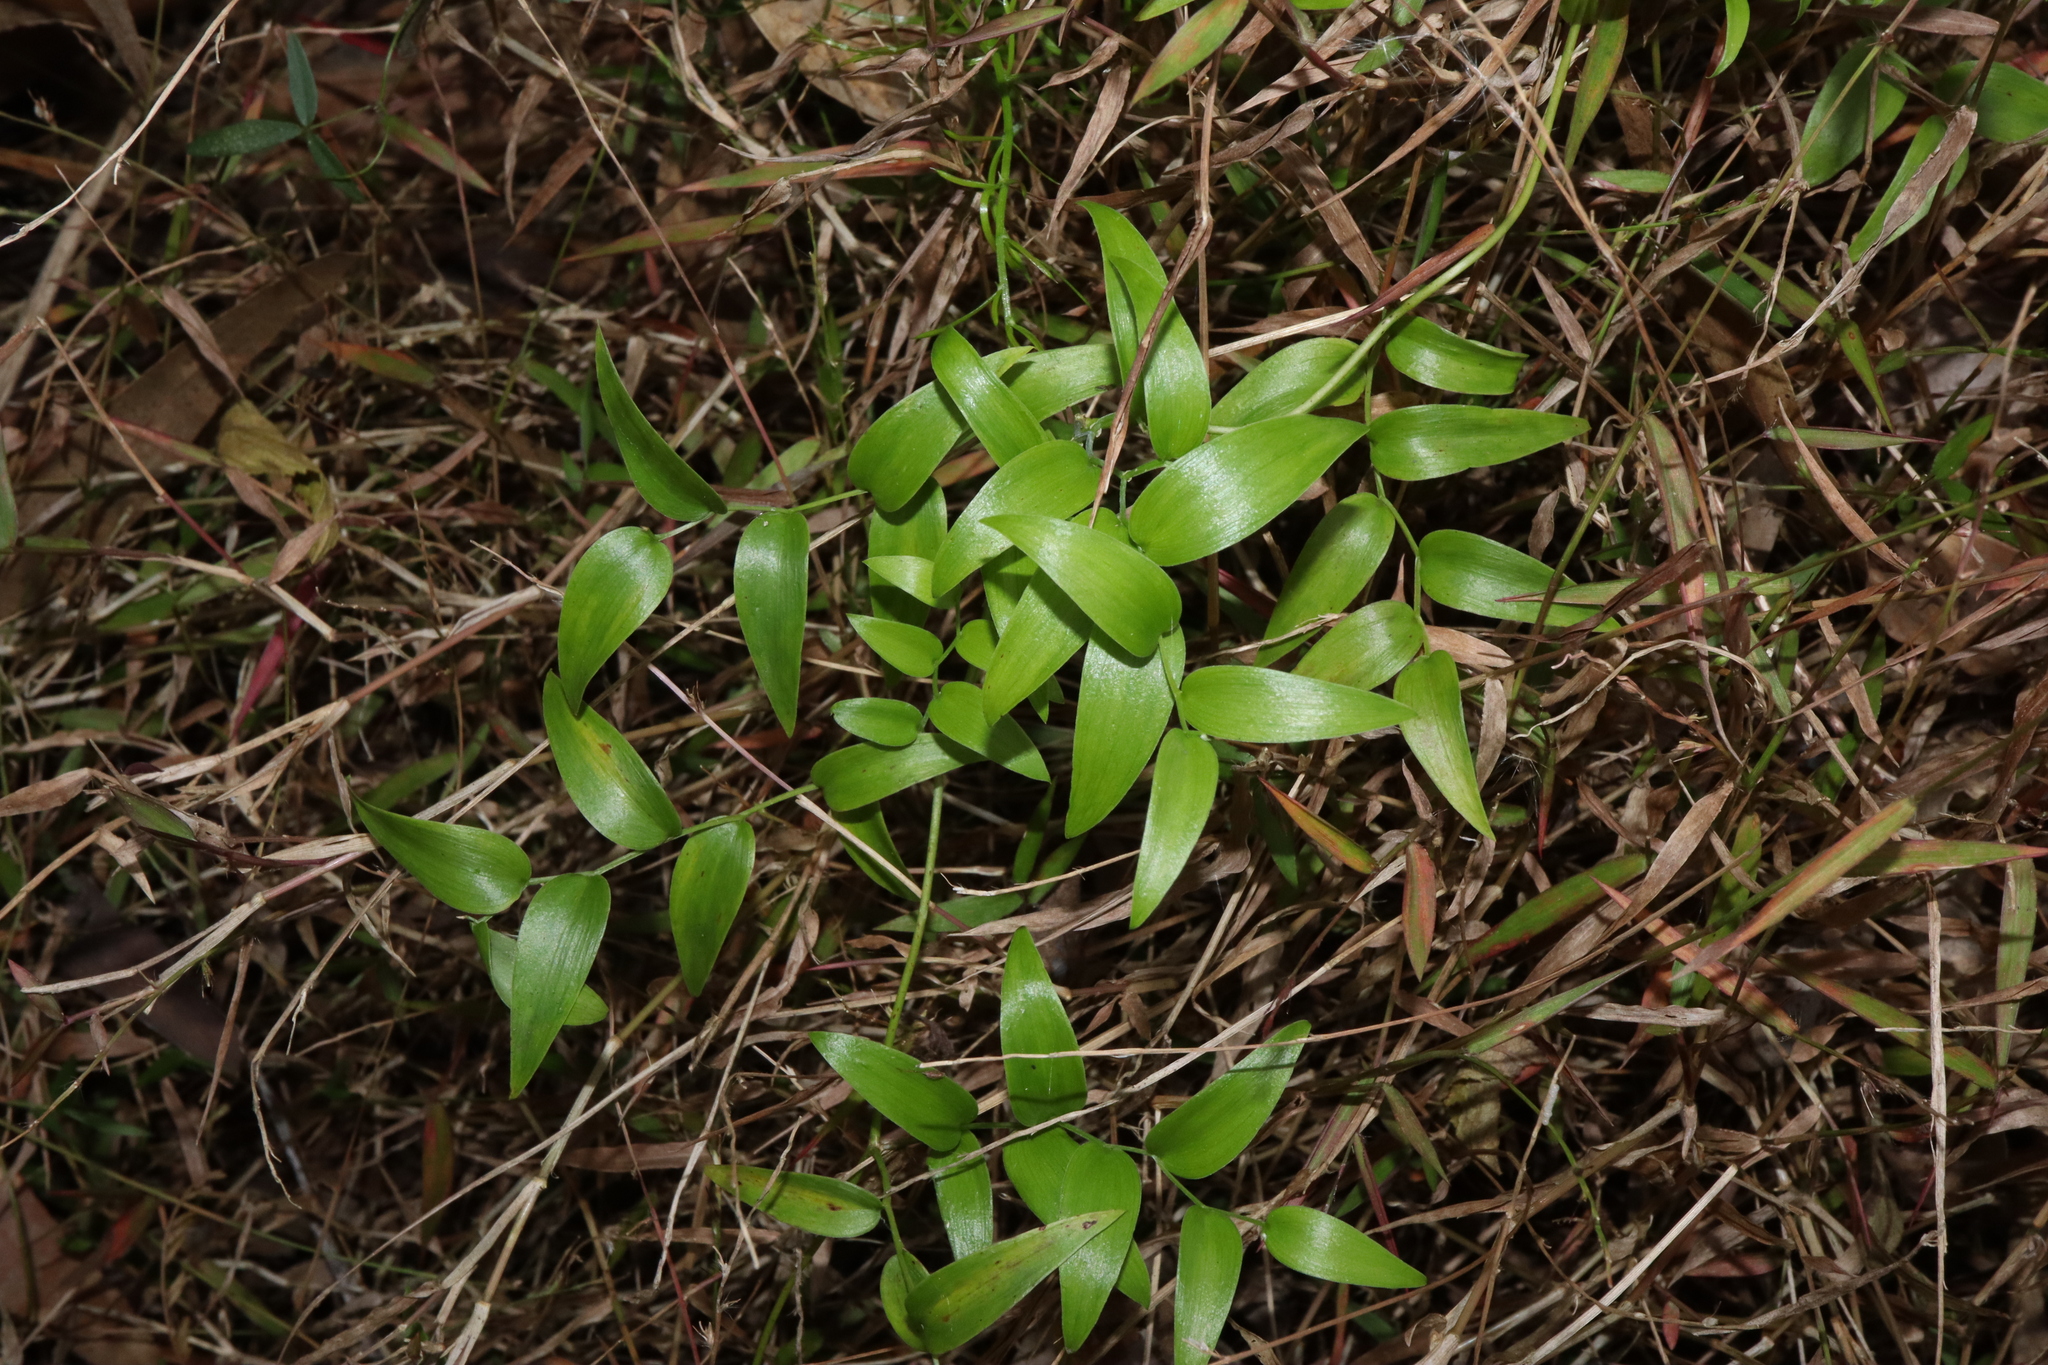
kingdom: Plantae
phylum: Tracheophyta
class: Liliopsida
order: Asparagales
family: Asparagaceae
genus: Asparagus
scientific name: Asparagus asparagoides
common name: African asparagus fern
